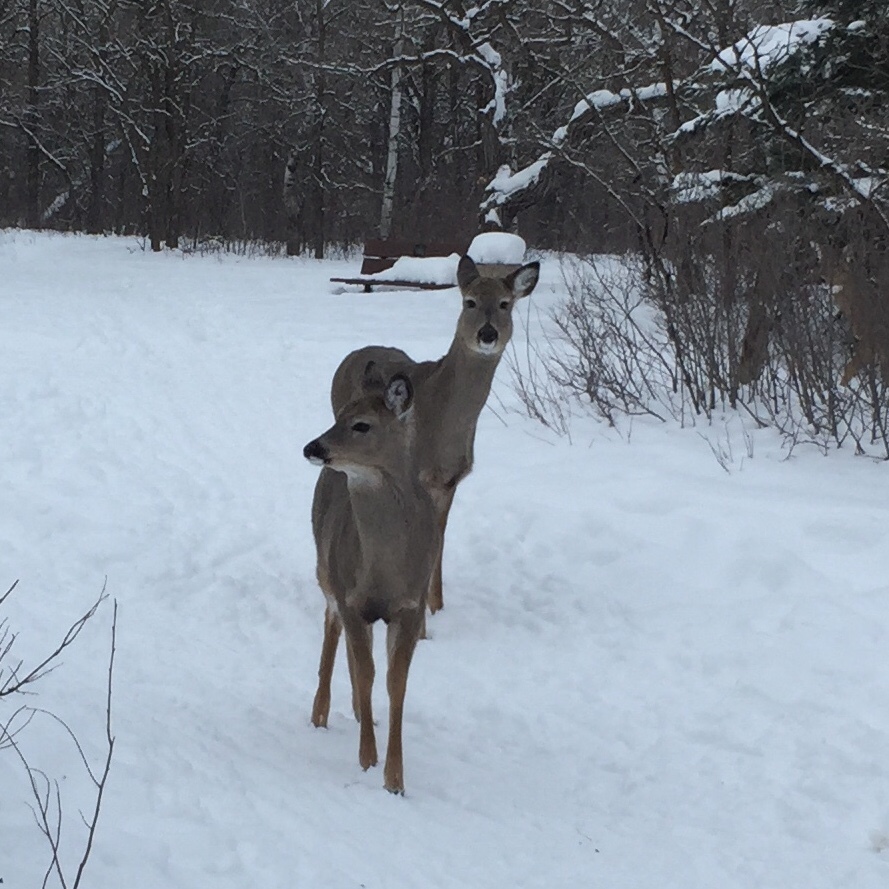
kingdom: Animalia
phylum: Chordata
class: Mammalia
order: Artiodactyla
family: Cervidae
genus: Odocoileus
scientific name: Odocoileus virginianus
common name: White-tailed deer
